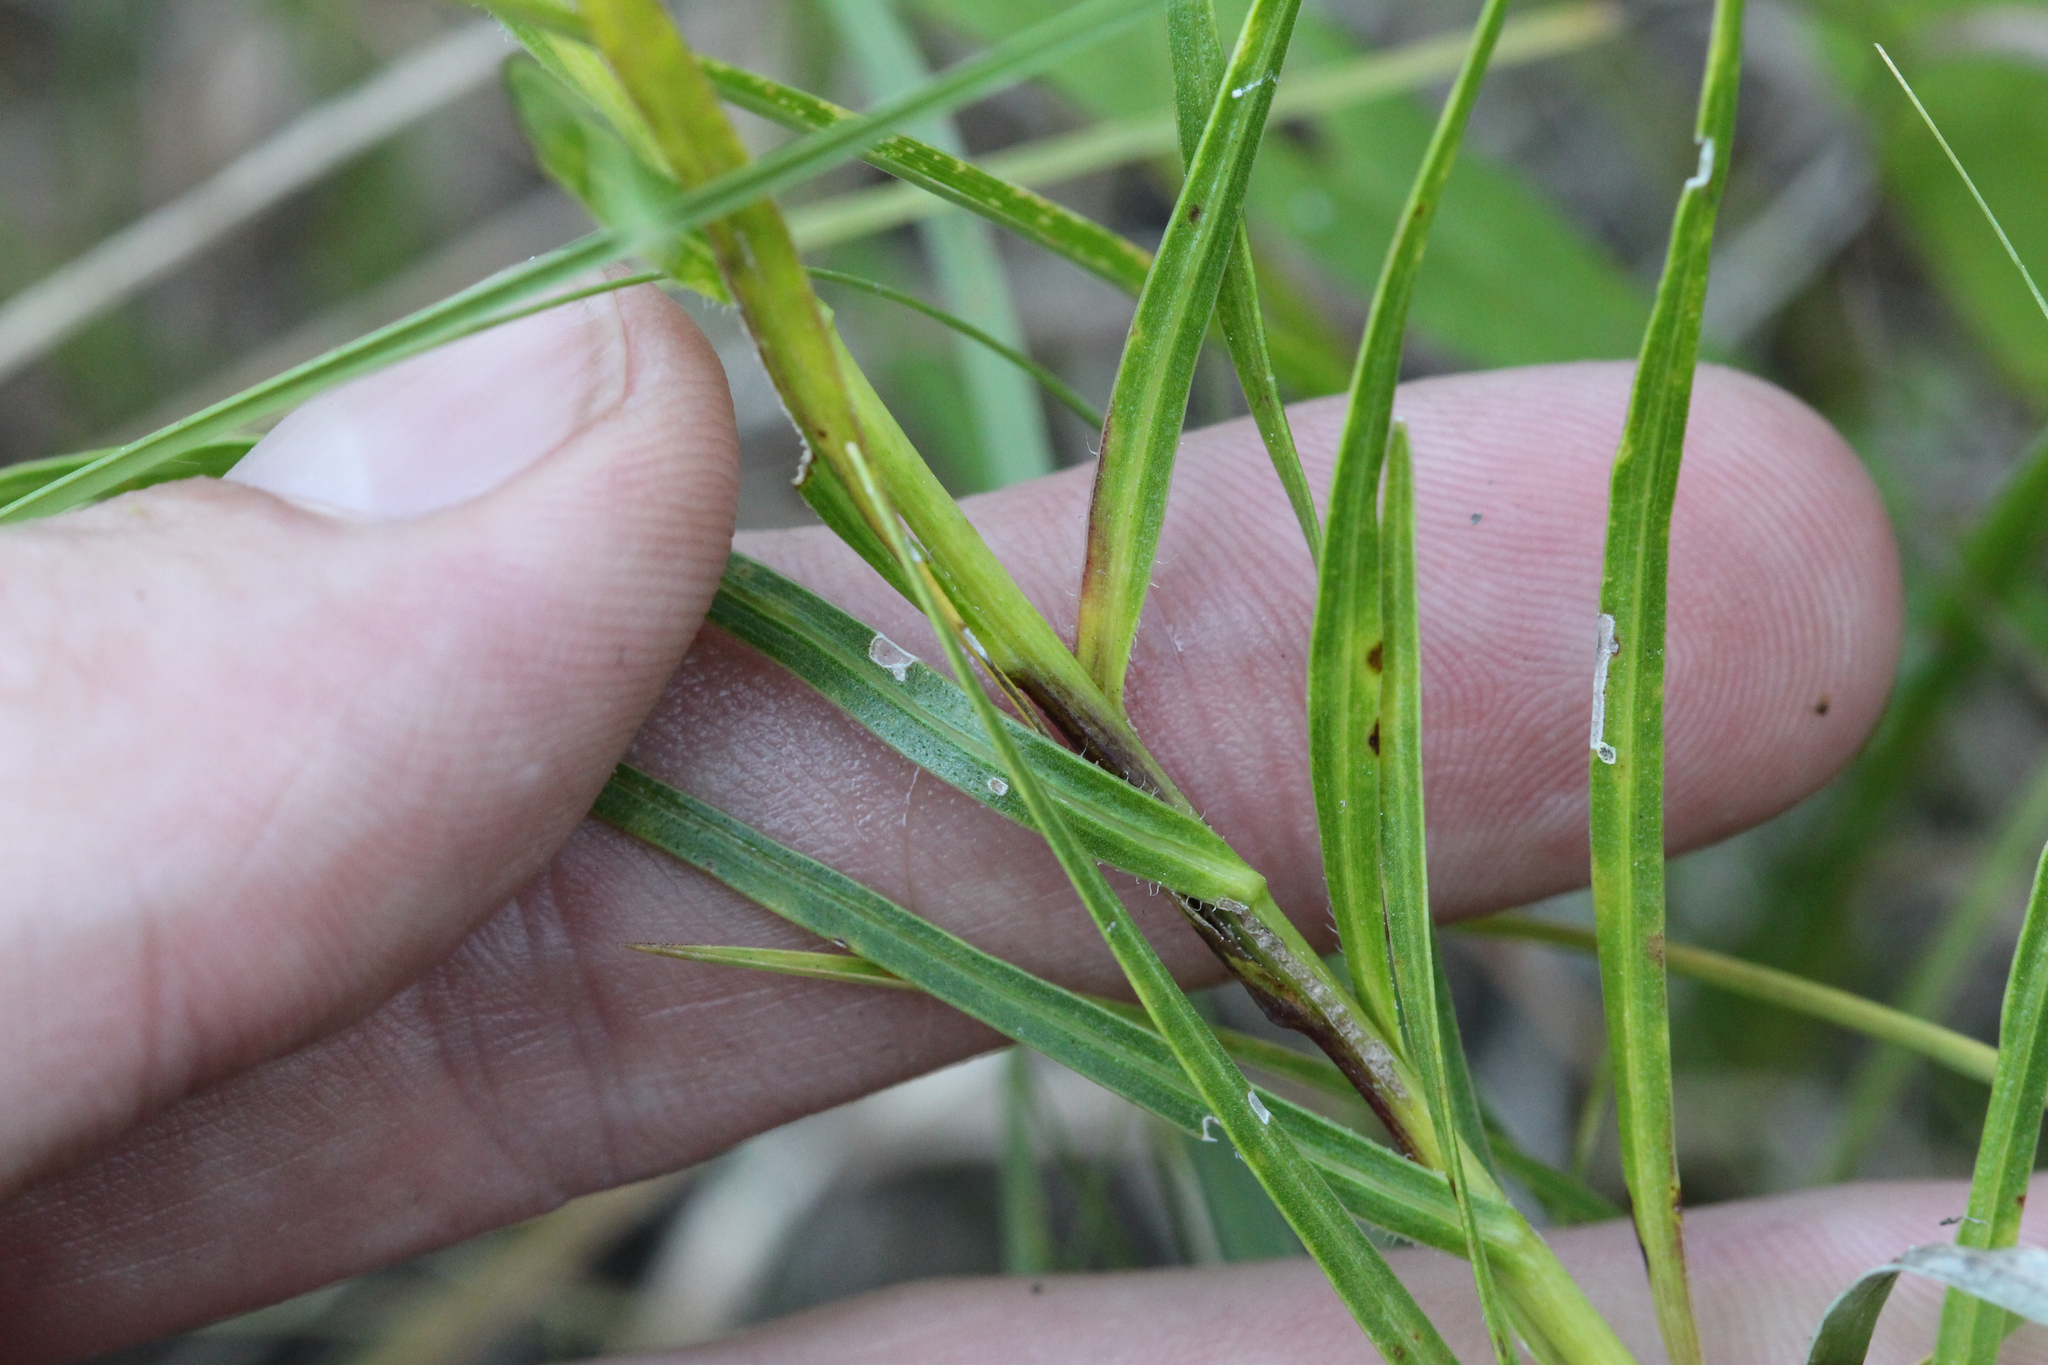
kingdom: Plantae
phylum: Tracheophyta
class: Magnoliopsida
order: Asterales
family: Asteraceae
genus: Liatris
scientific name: Liatris squarrosa
